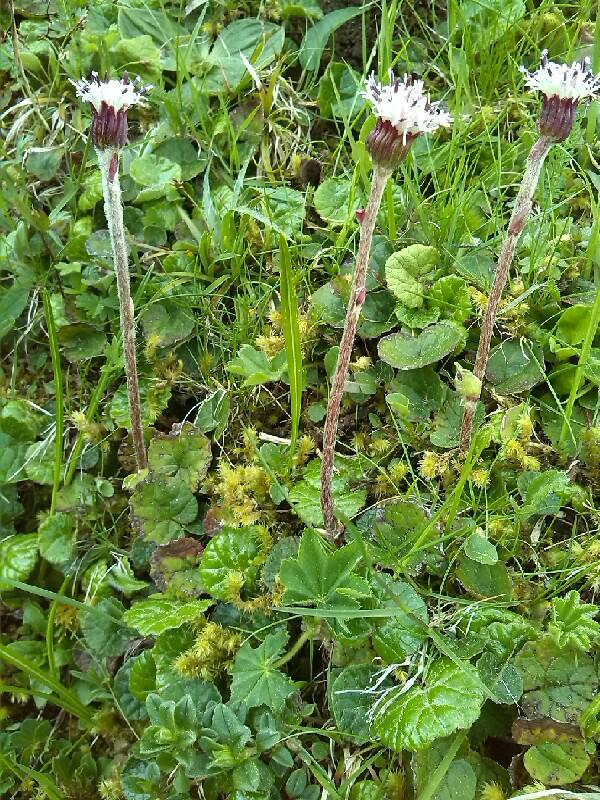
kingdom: Plantae
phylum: Tracheophyta
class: Magnoliopsida
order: Asterales
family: Asteraceae
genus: Homogyne
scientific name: Homogyne alpina
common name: Purple colt's-foot
